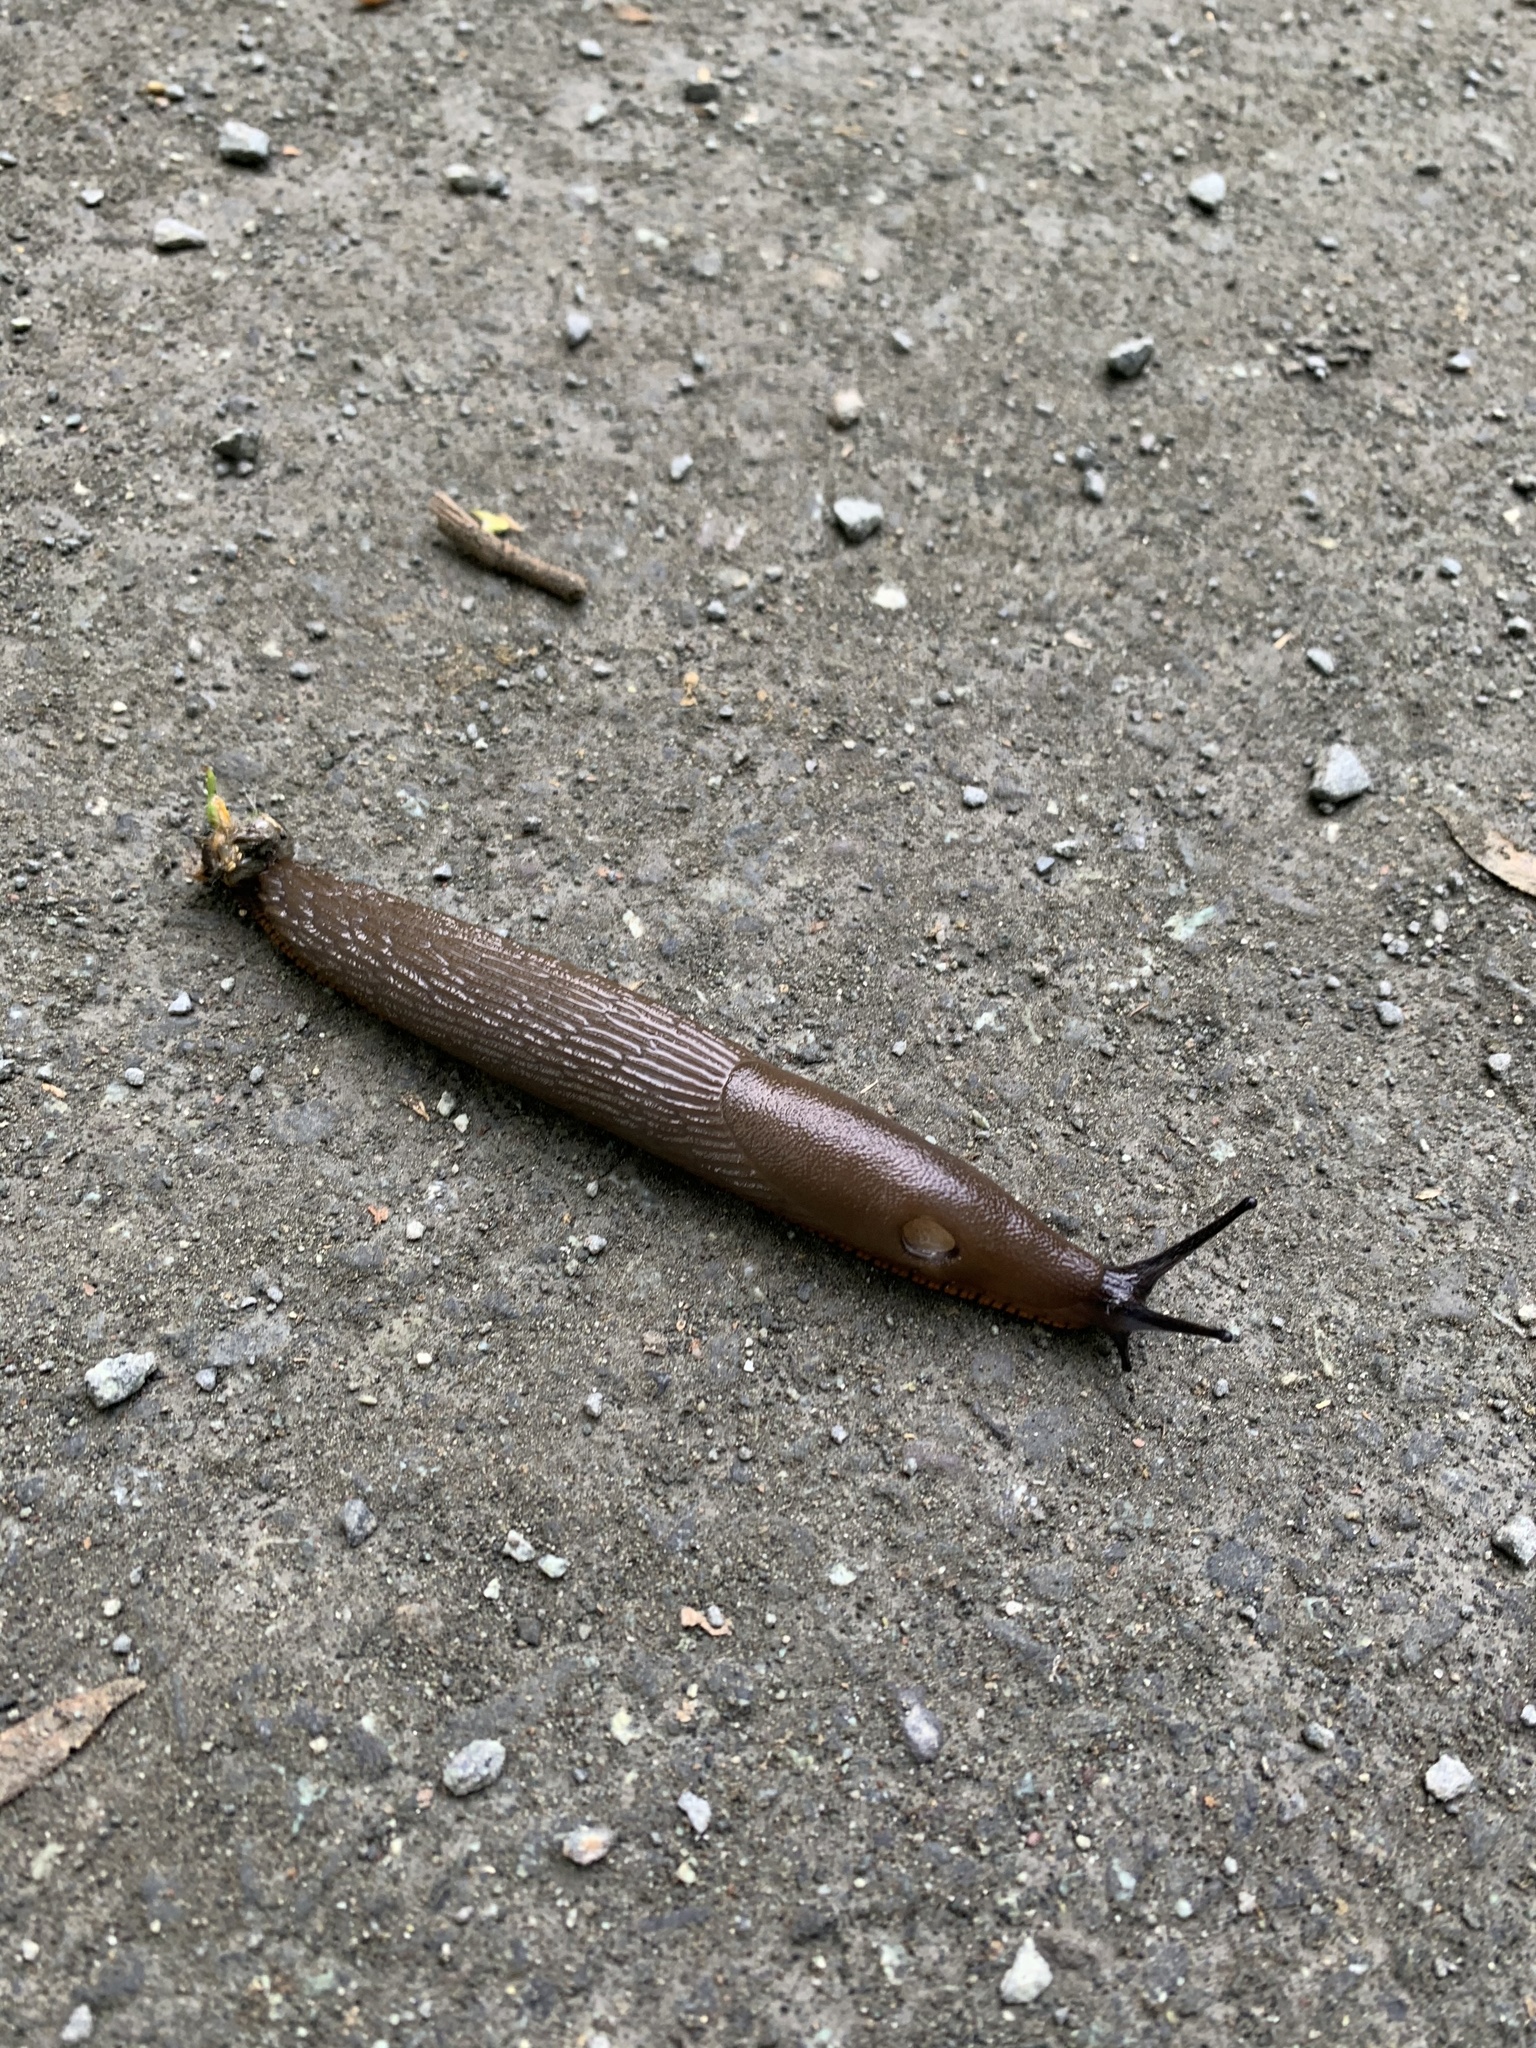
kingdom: Animalia
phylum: Mollusca
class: Gastropoda
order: Stylommatophora
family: Arionidae
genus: Arion
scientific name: Arion rufus
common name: Chocolate arion
